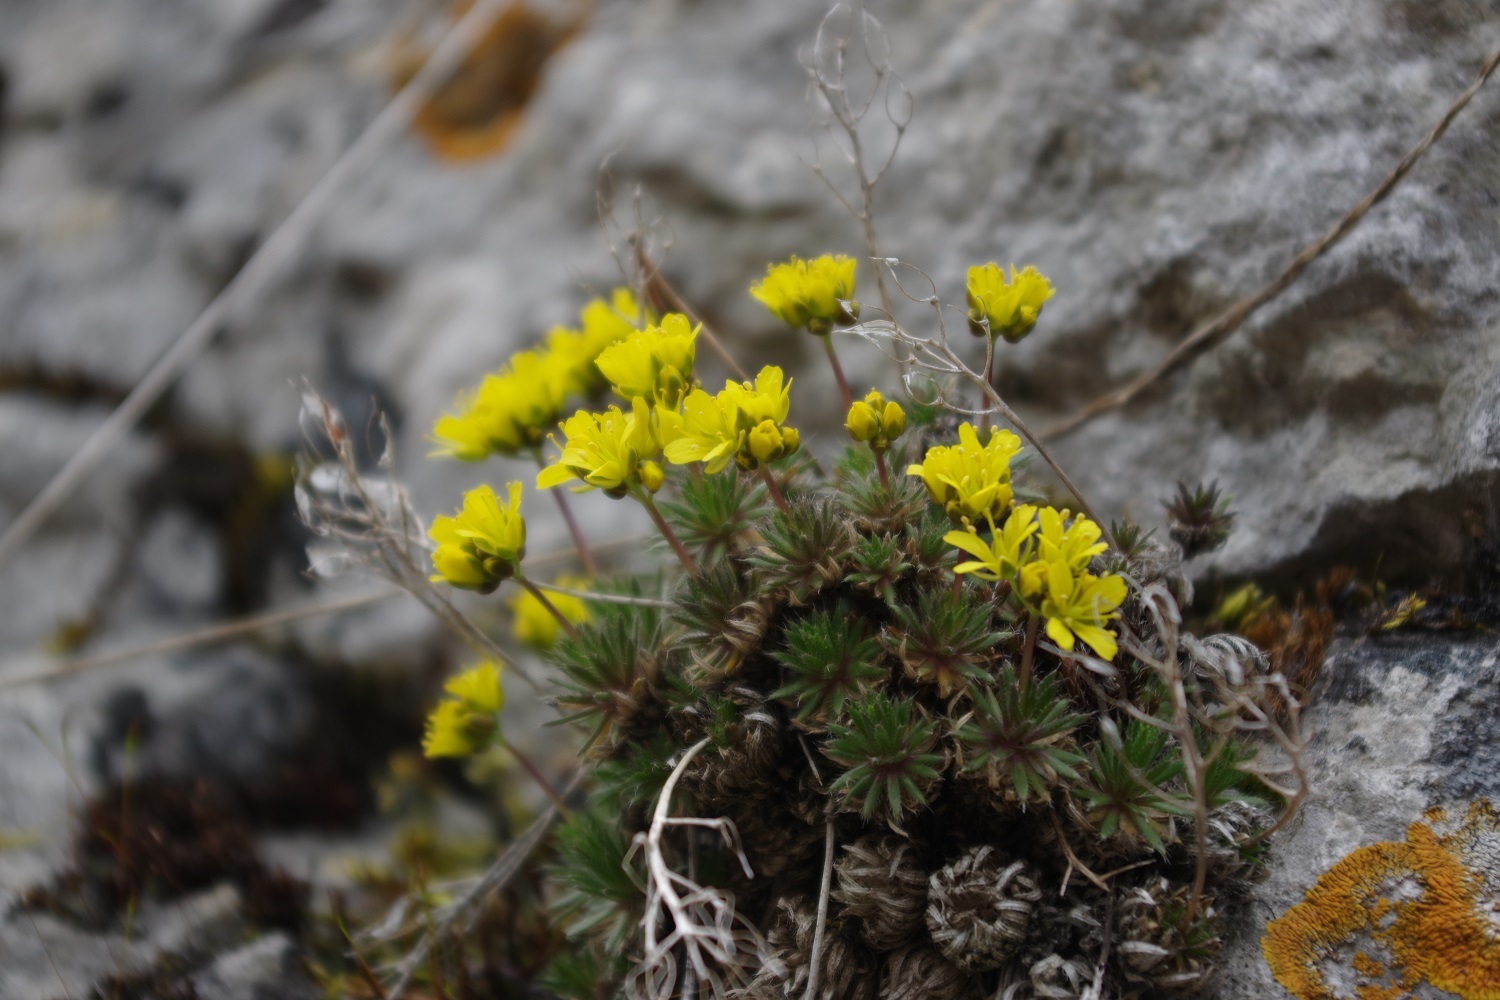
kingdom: Plantae
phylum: Tracheophyta
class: Magnoliopsida
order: Brassicales
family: Brassicaceae
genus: Draba
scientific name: Draba aizoides
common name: Yellow whitlowgrass
